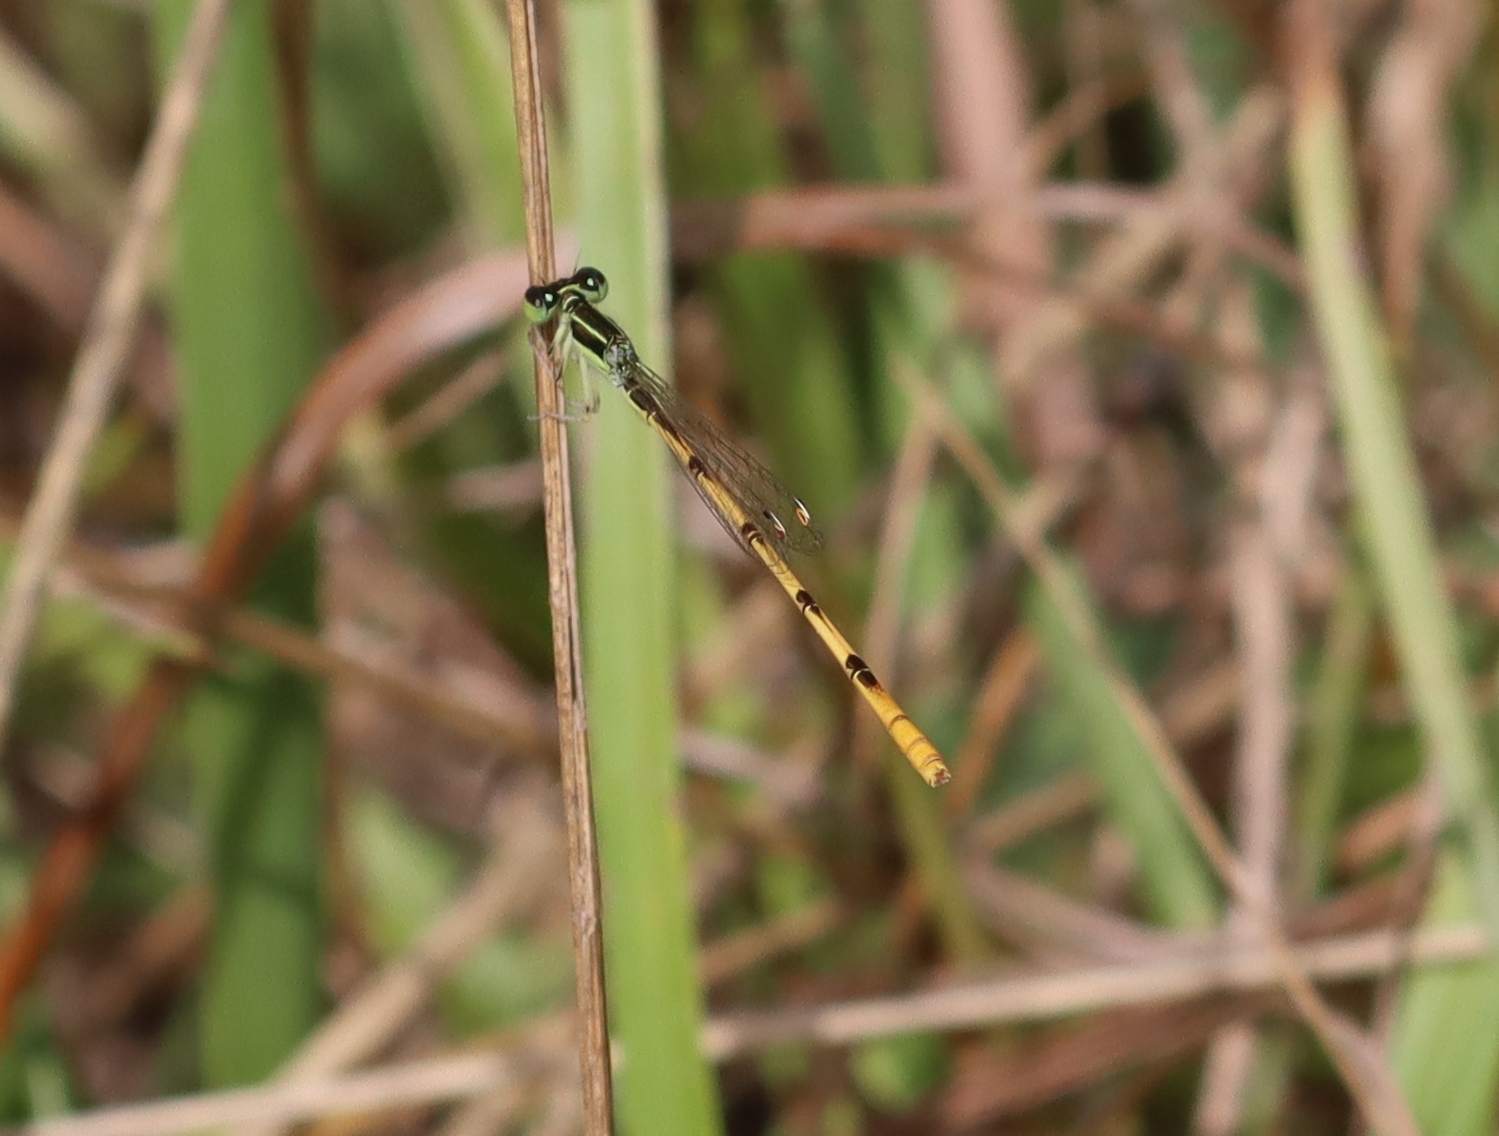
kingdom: Animalia
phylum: Arthropoda
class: Insecta
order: Odonata
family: Coenagrionidae
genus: Ischnura
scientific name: Ischnura hastata
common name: Citrine forktail
